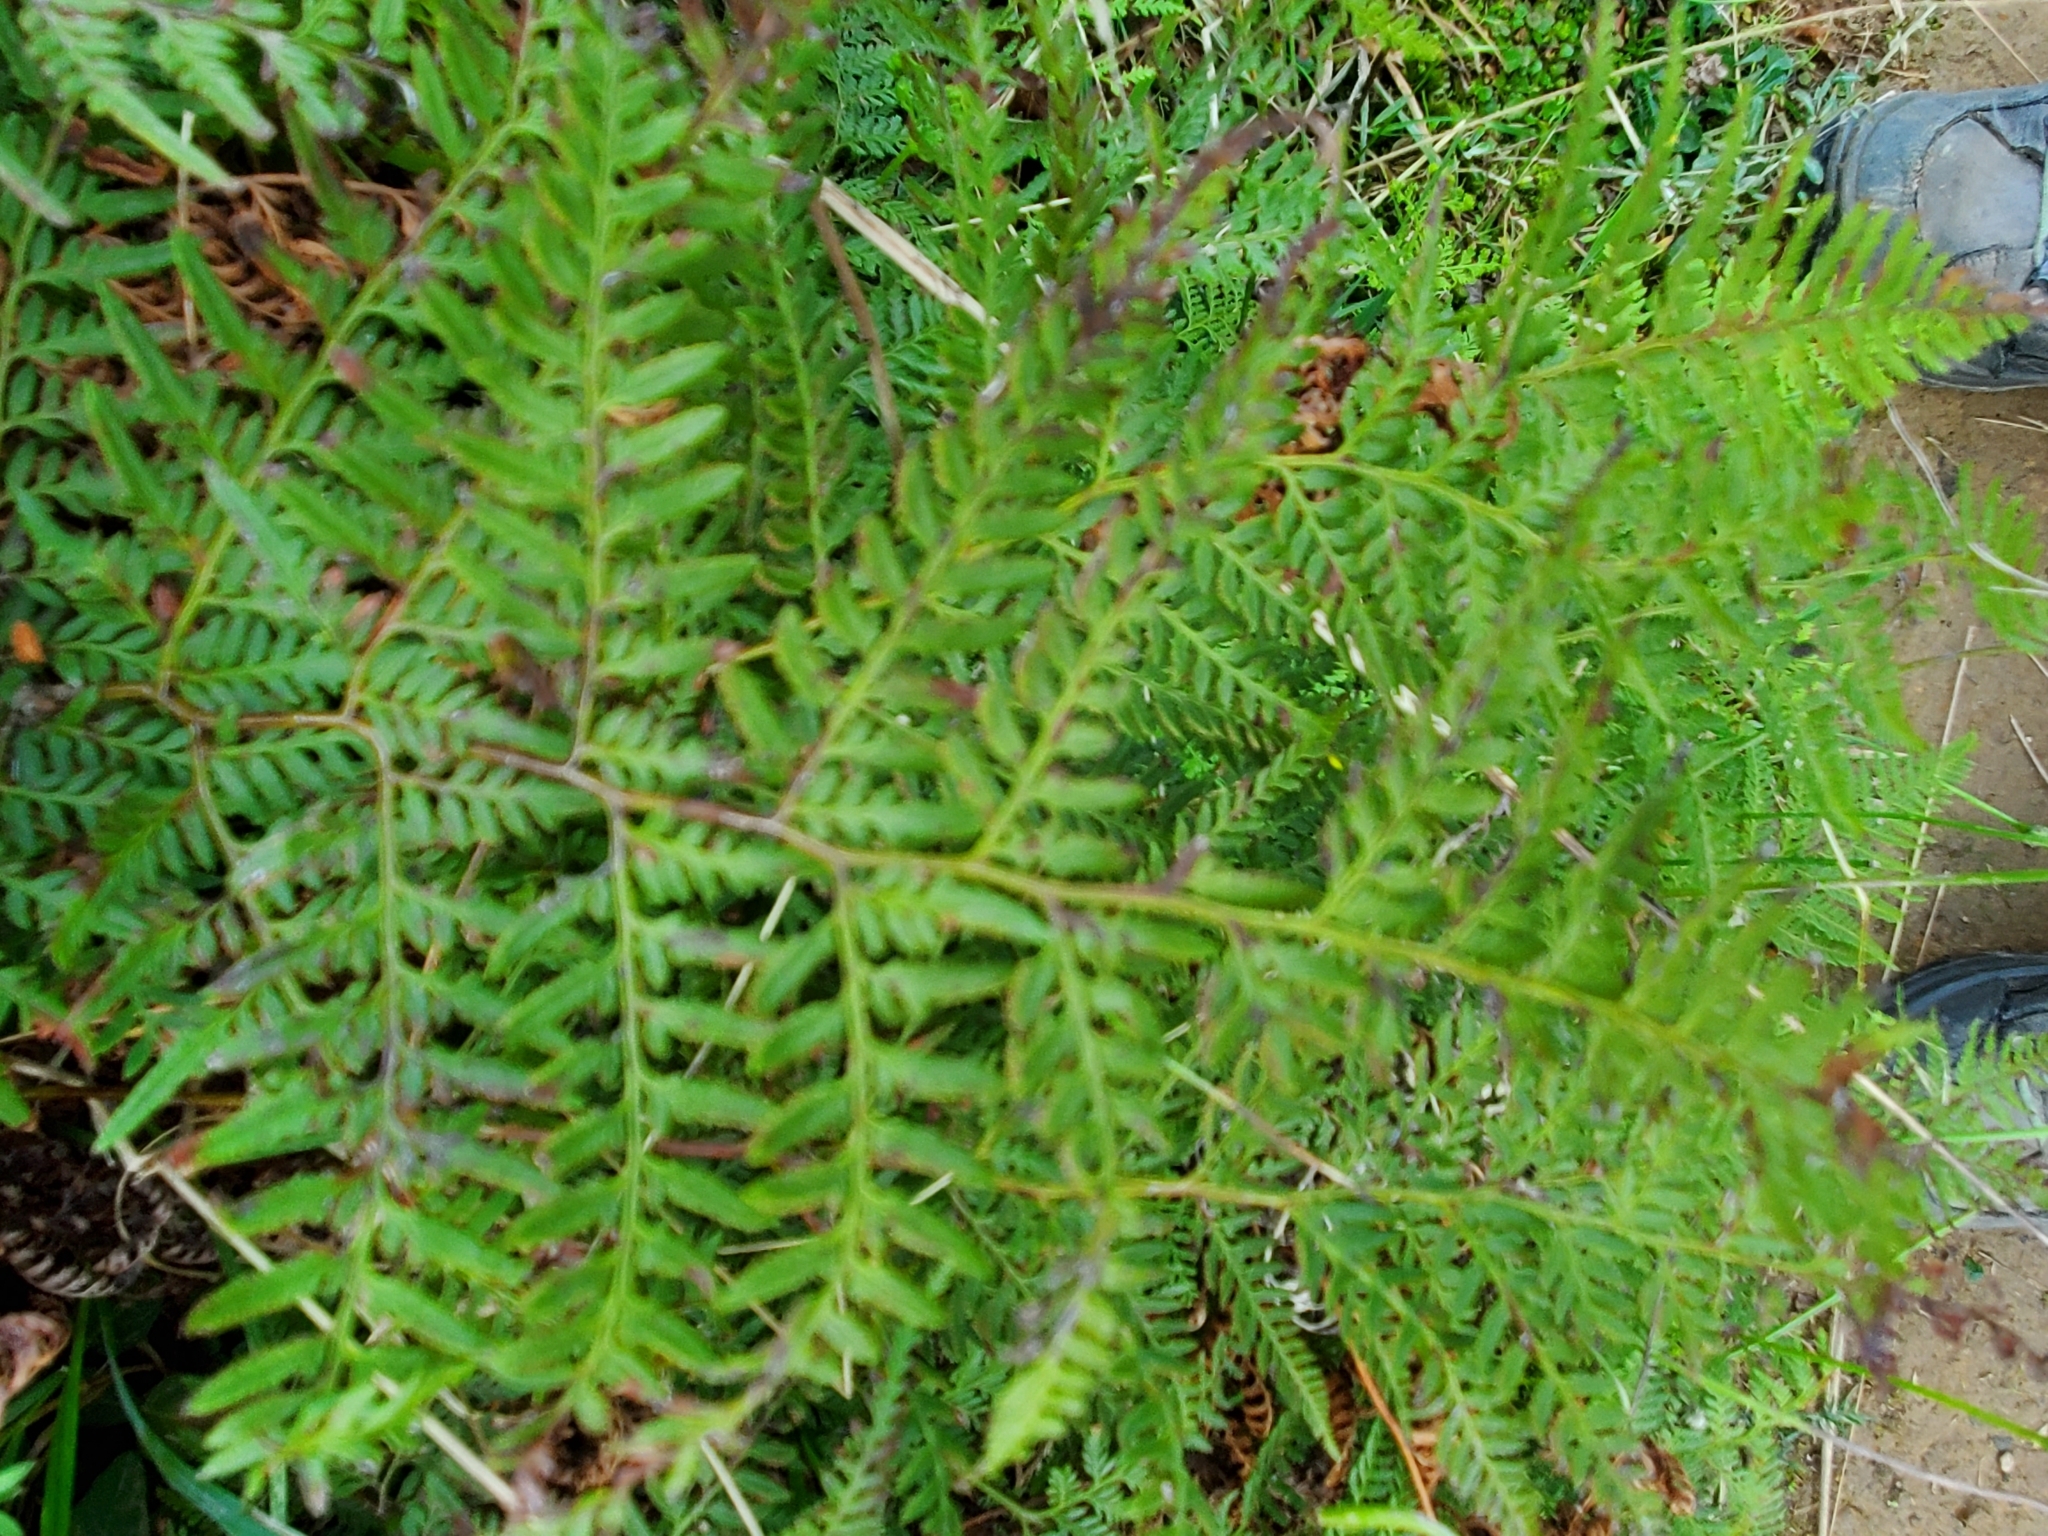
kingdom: Plantae
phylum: Tracheophyta
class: Polypodiopsida
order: Polypodiales
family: Dennstaedtiaceae
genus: Paesia
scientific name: Paesia scaberula
